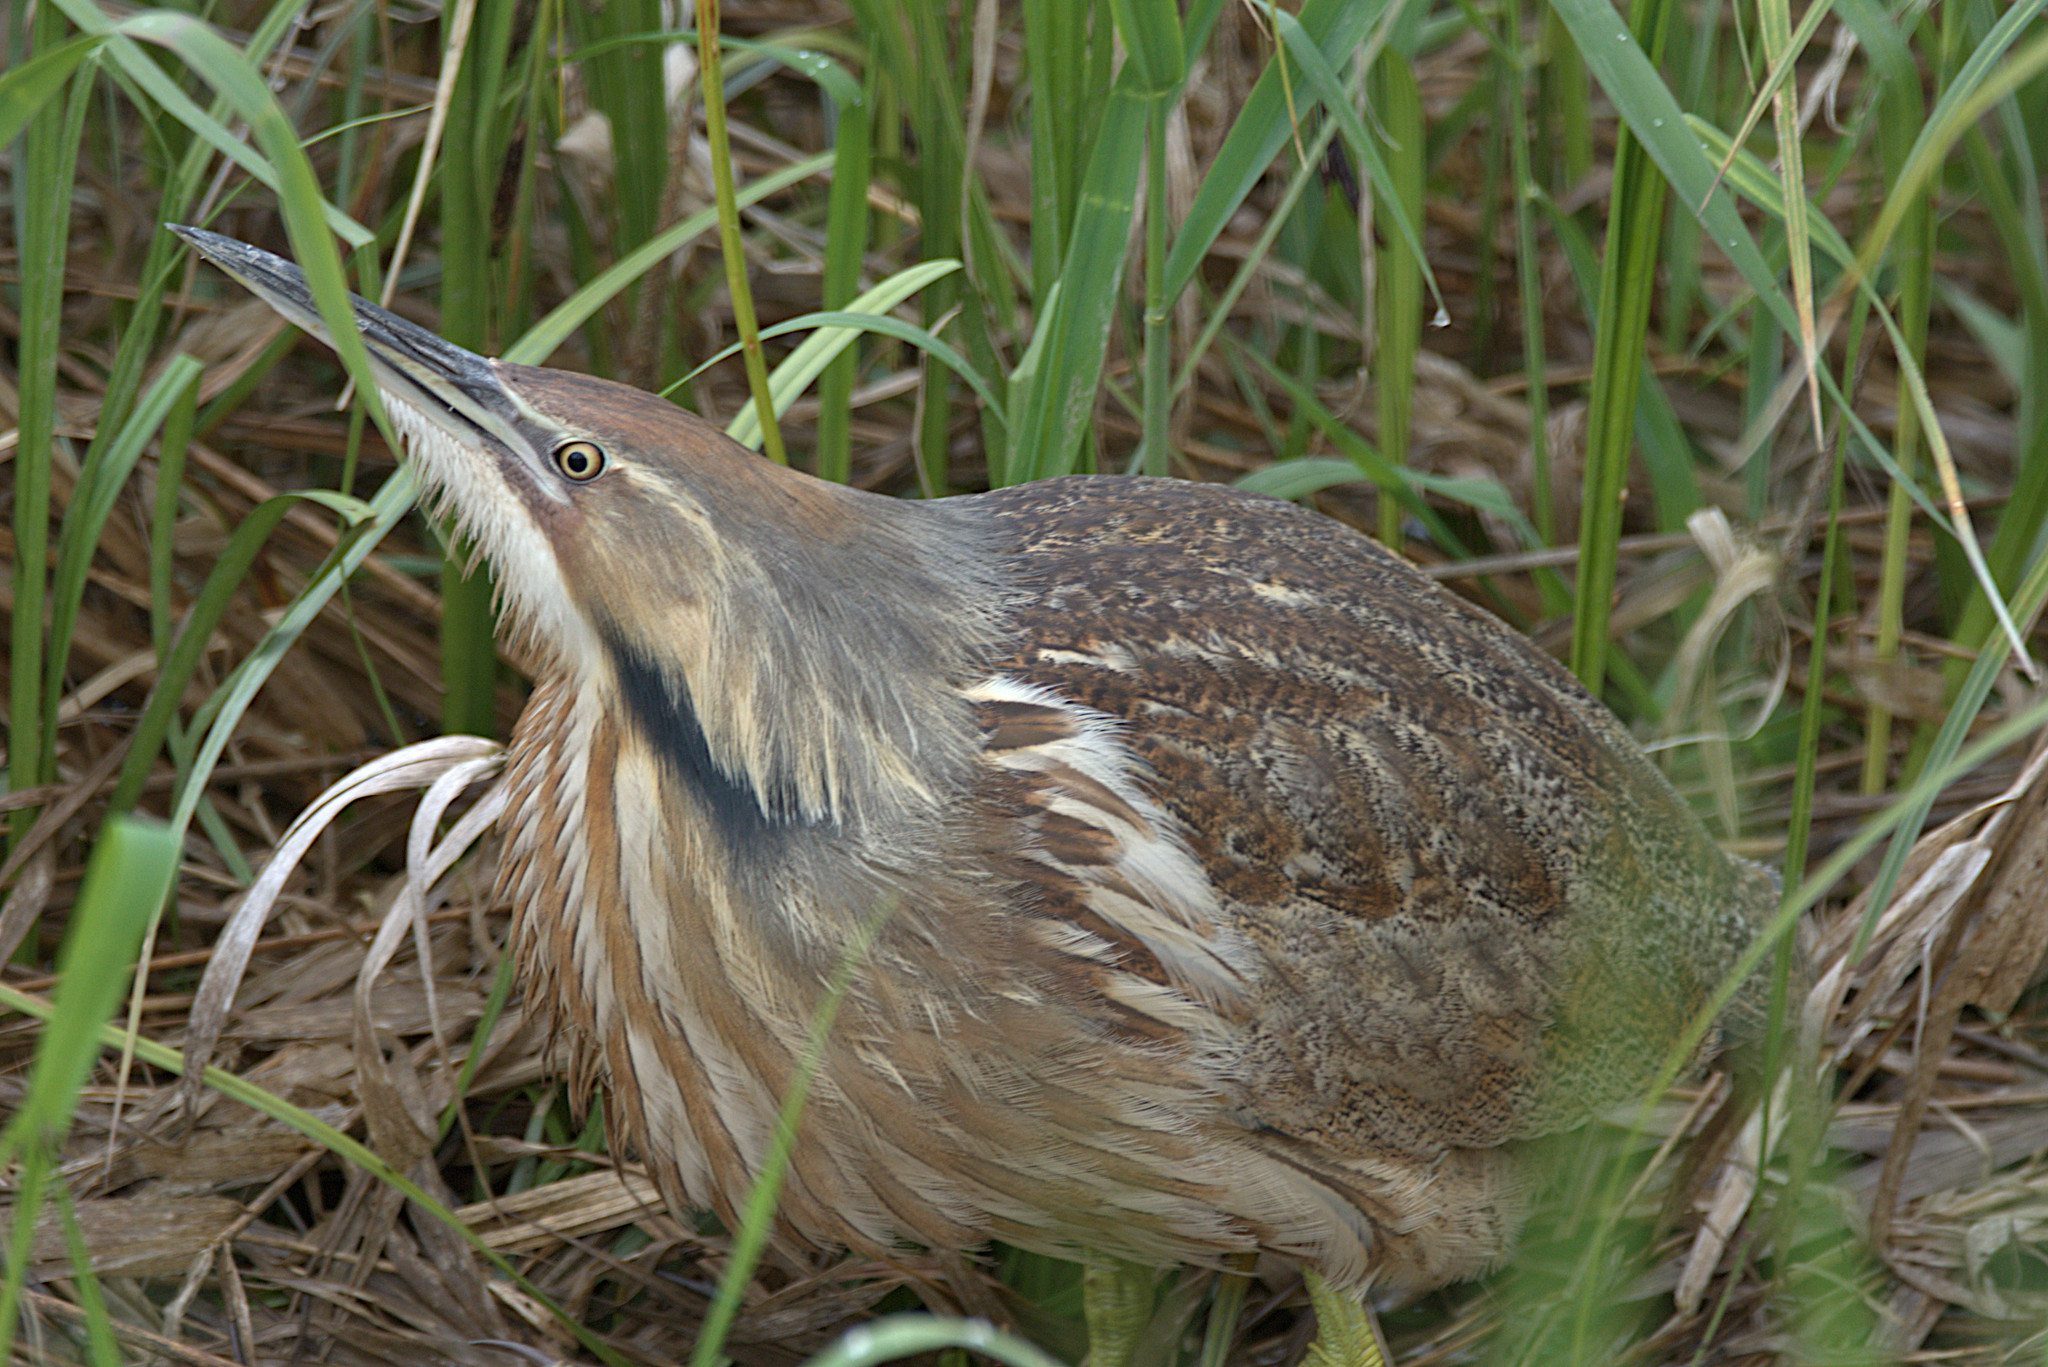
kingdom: Animalia
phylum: Chordata
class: Aves
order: Pelecaniformes
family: Ardeidae
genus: Botaurus
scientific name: Botaurus lentiginosus
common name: American bittern
